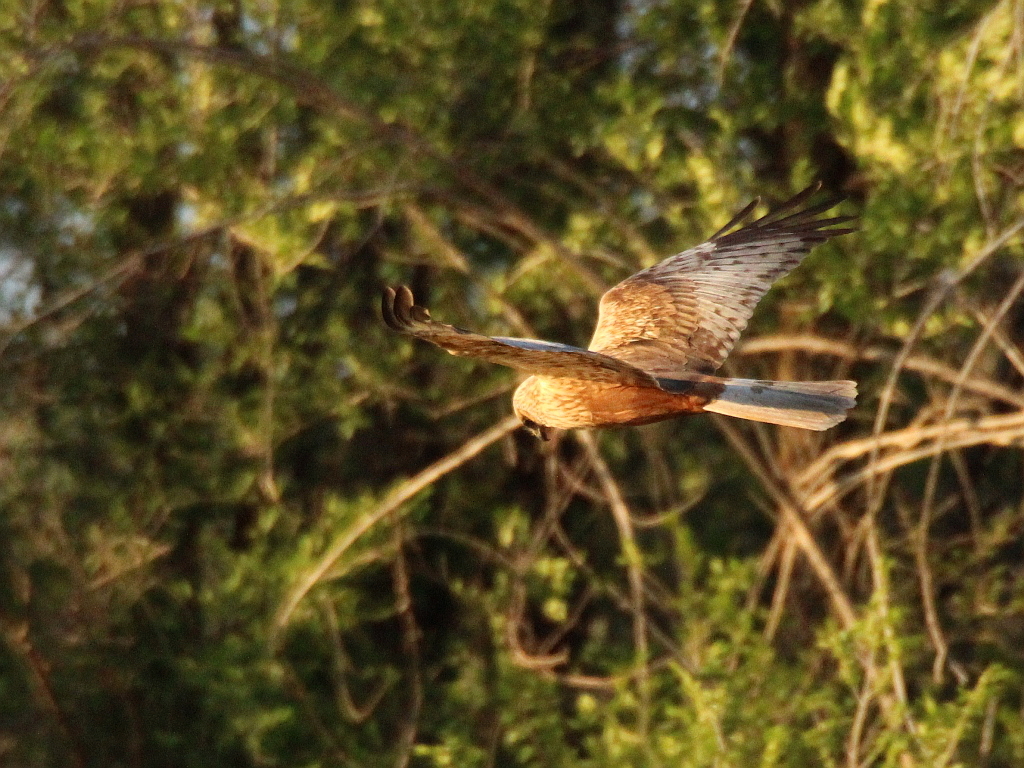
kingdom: Animalia
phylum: Chordata
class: Aves
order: Accipitriformes
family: Accipitridae
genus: Circus
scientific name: Circus aeruginosus
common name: Western marsh harrier
